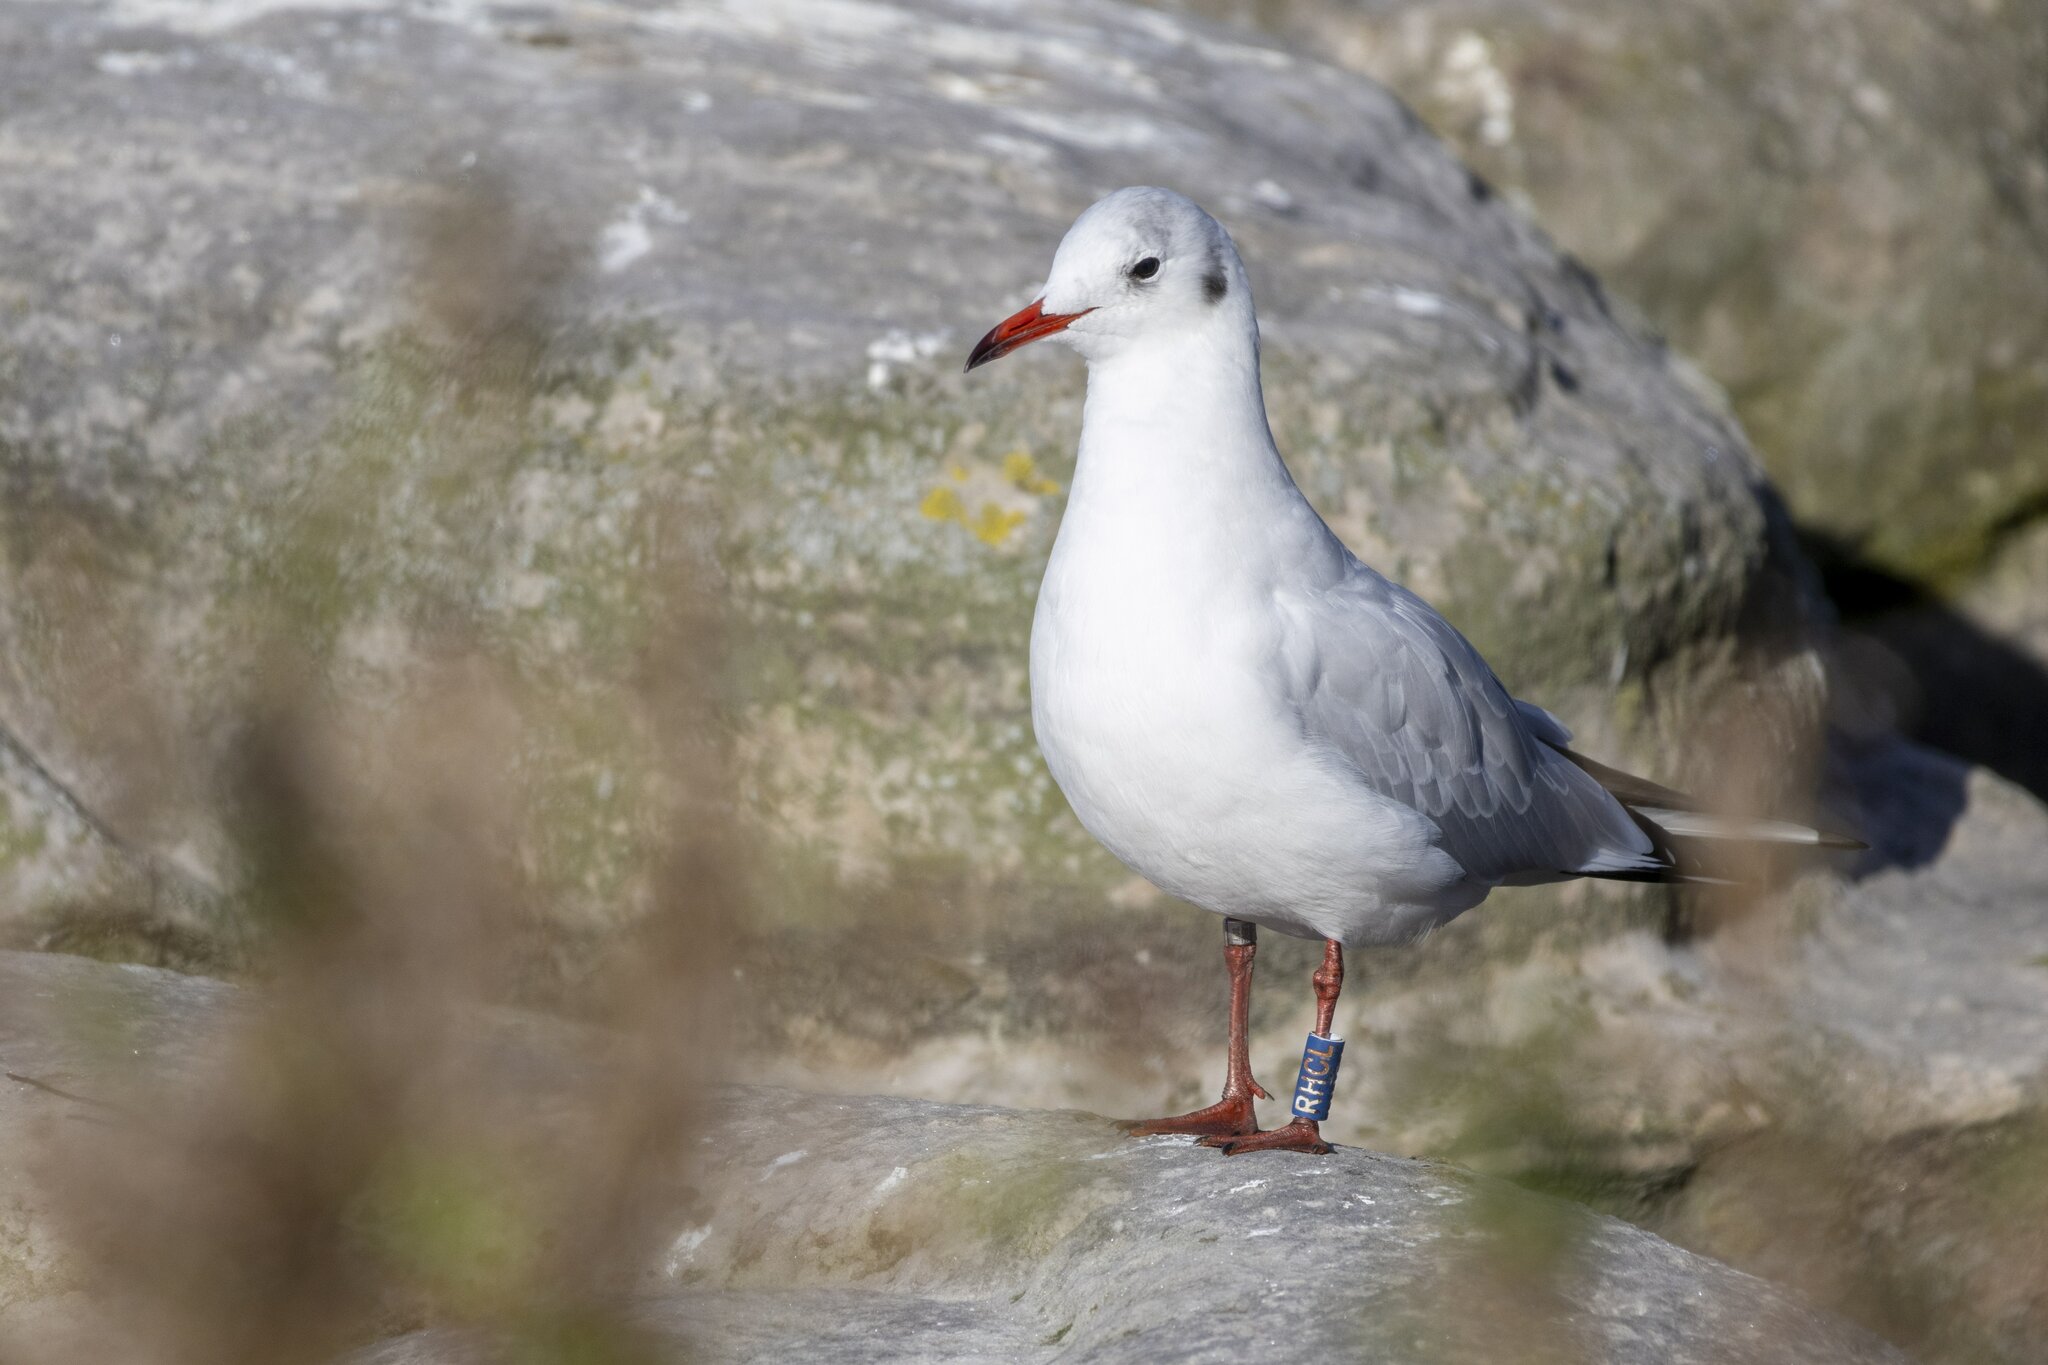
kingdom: Animalia
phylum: Chordata
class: Aves
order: Charadriiformes
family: Laridae
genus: Chroicocephalus
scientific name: Chroicocephalus ridibundus
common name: Black-headed gull
